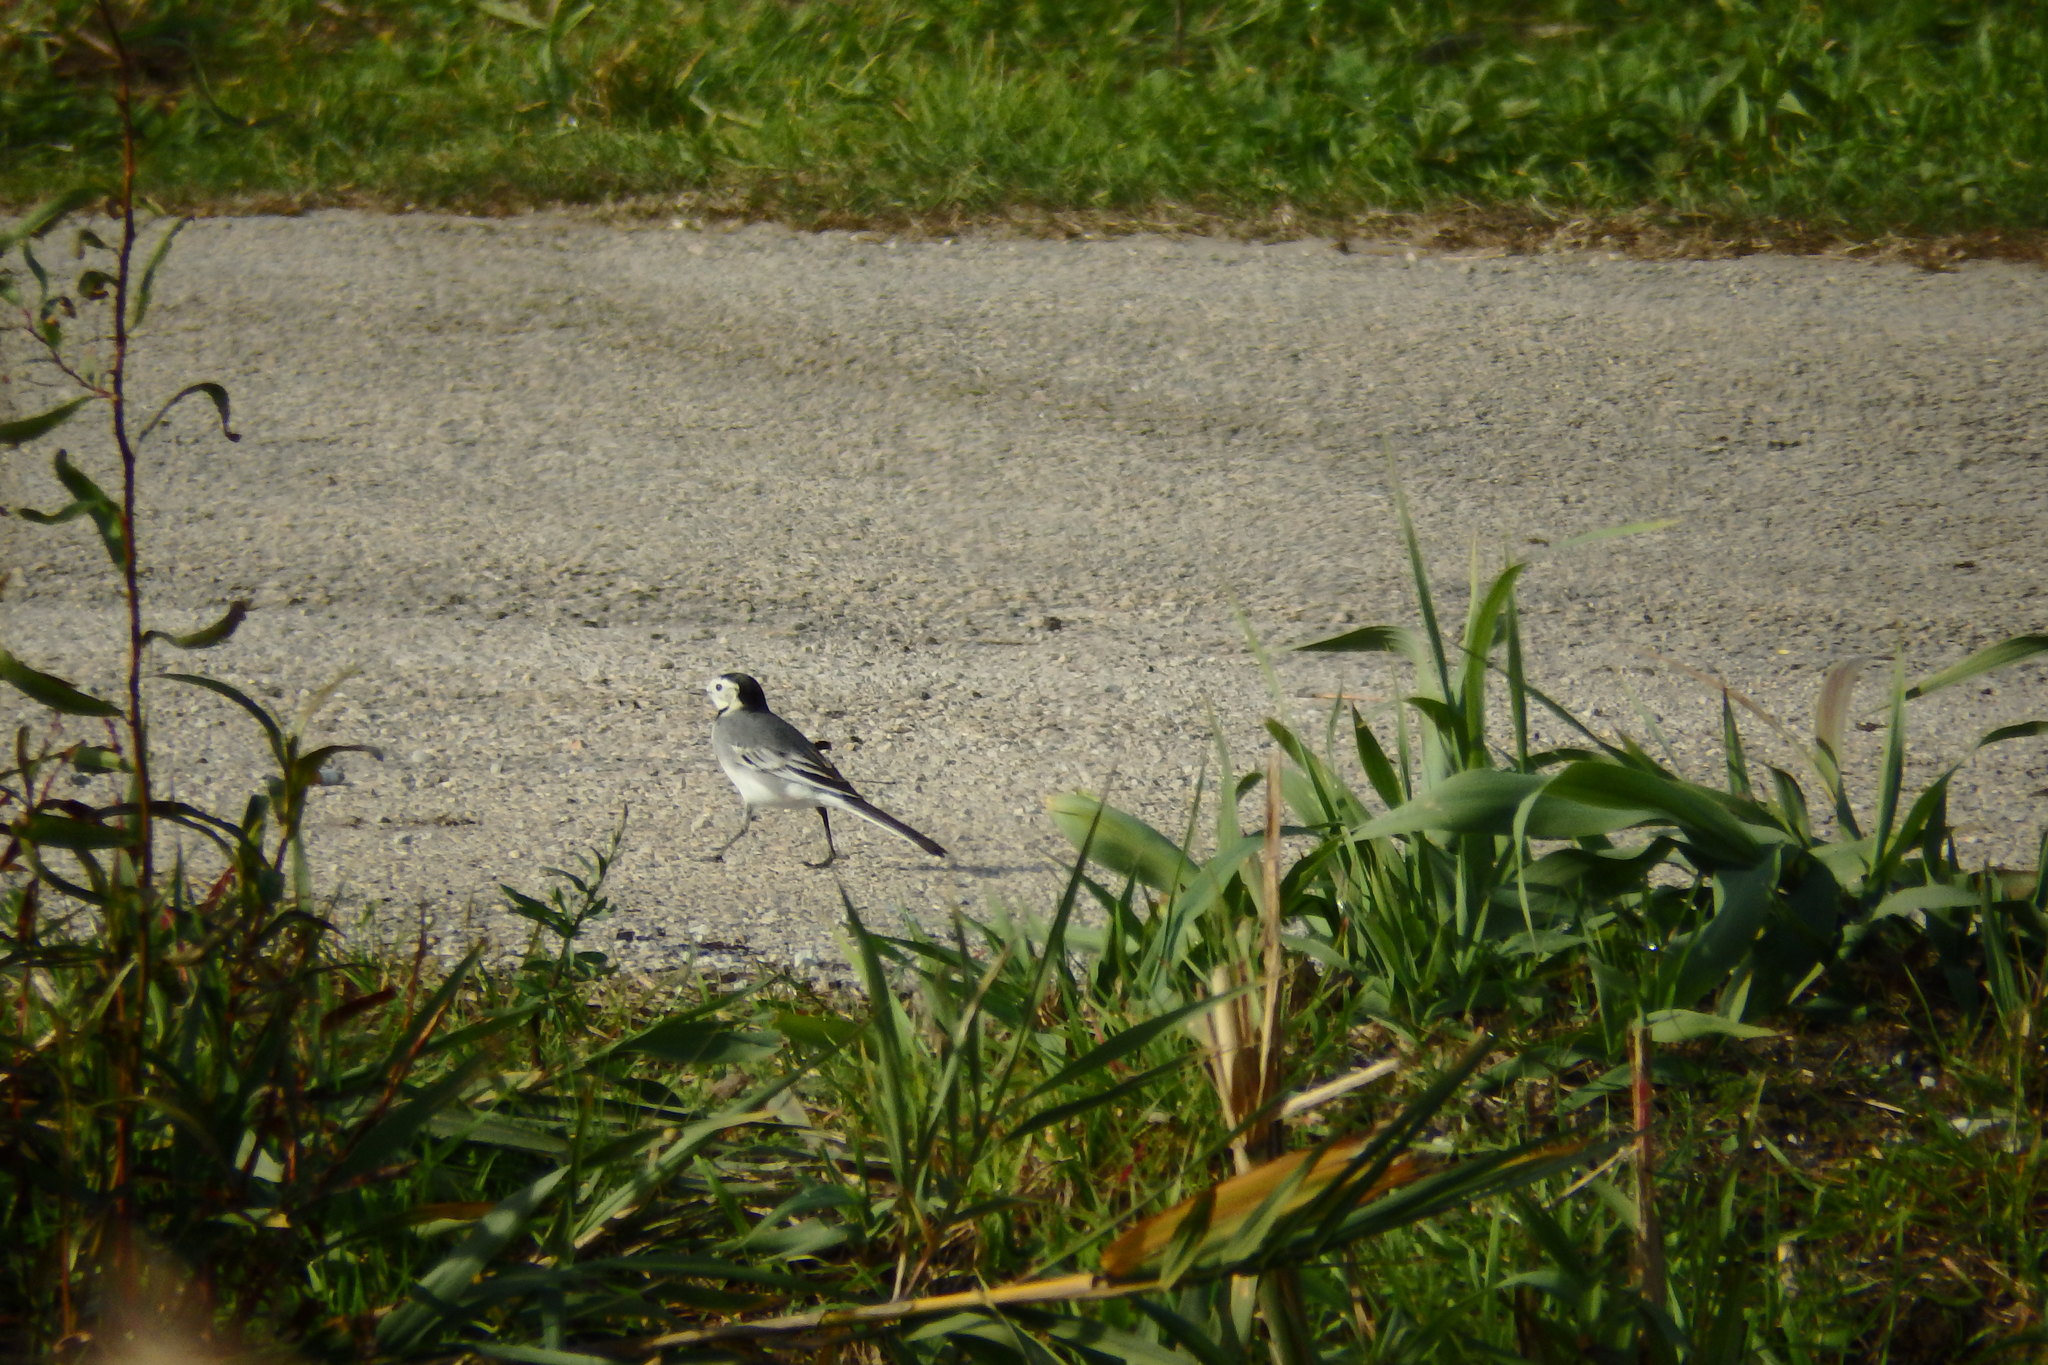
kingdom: Animalia
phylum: Chordata
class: Aves
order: Passeriformes
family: Motacillidae
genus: Motacilla
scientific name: Motacilla alba
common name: White wagtail
